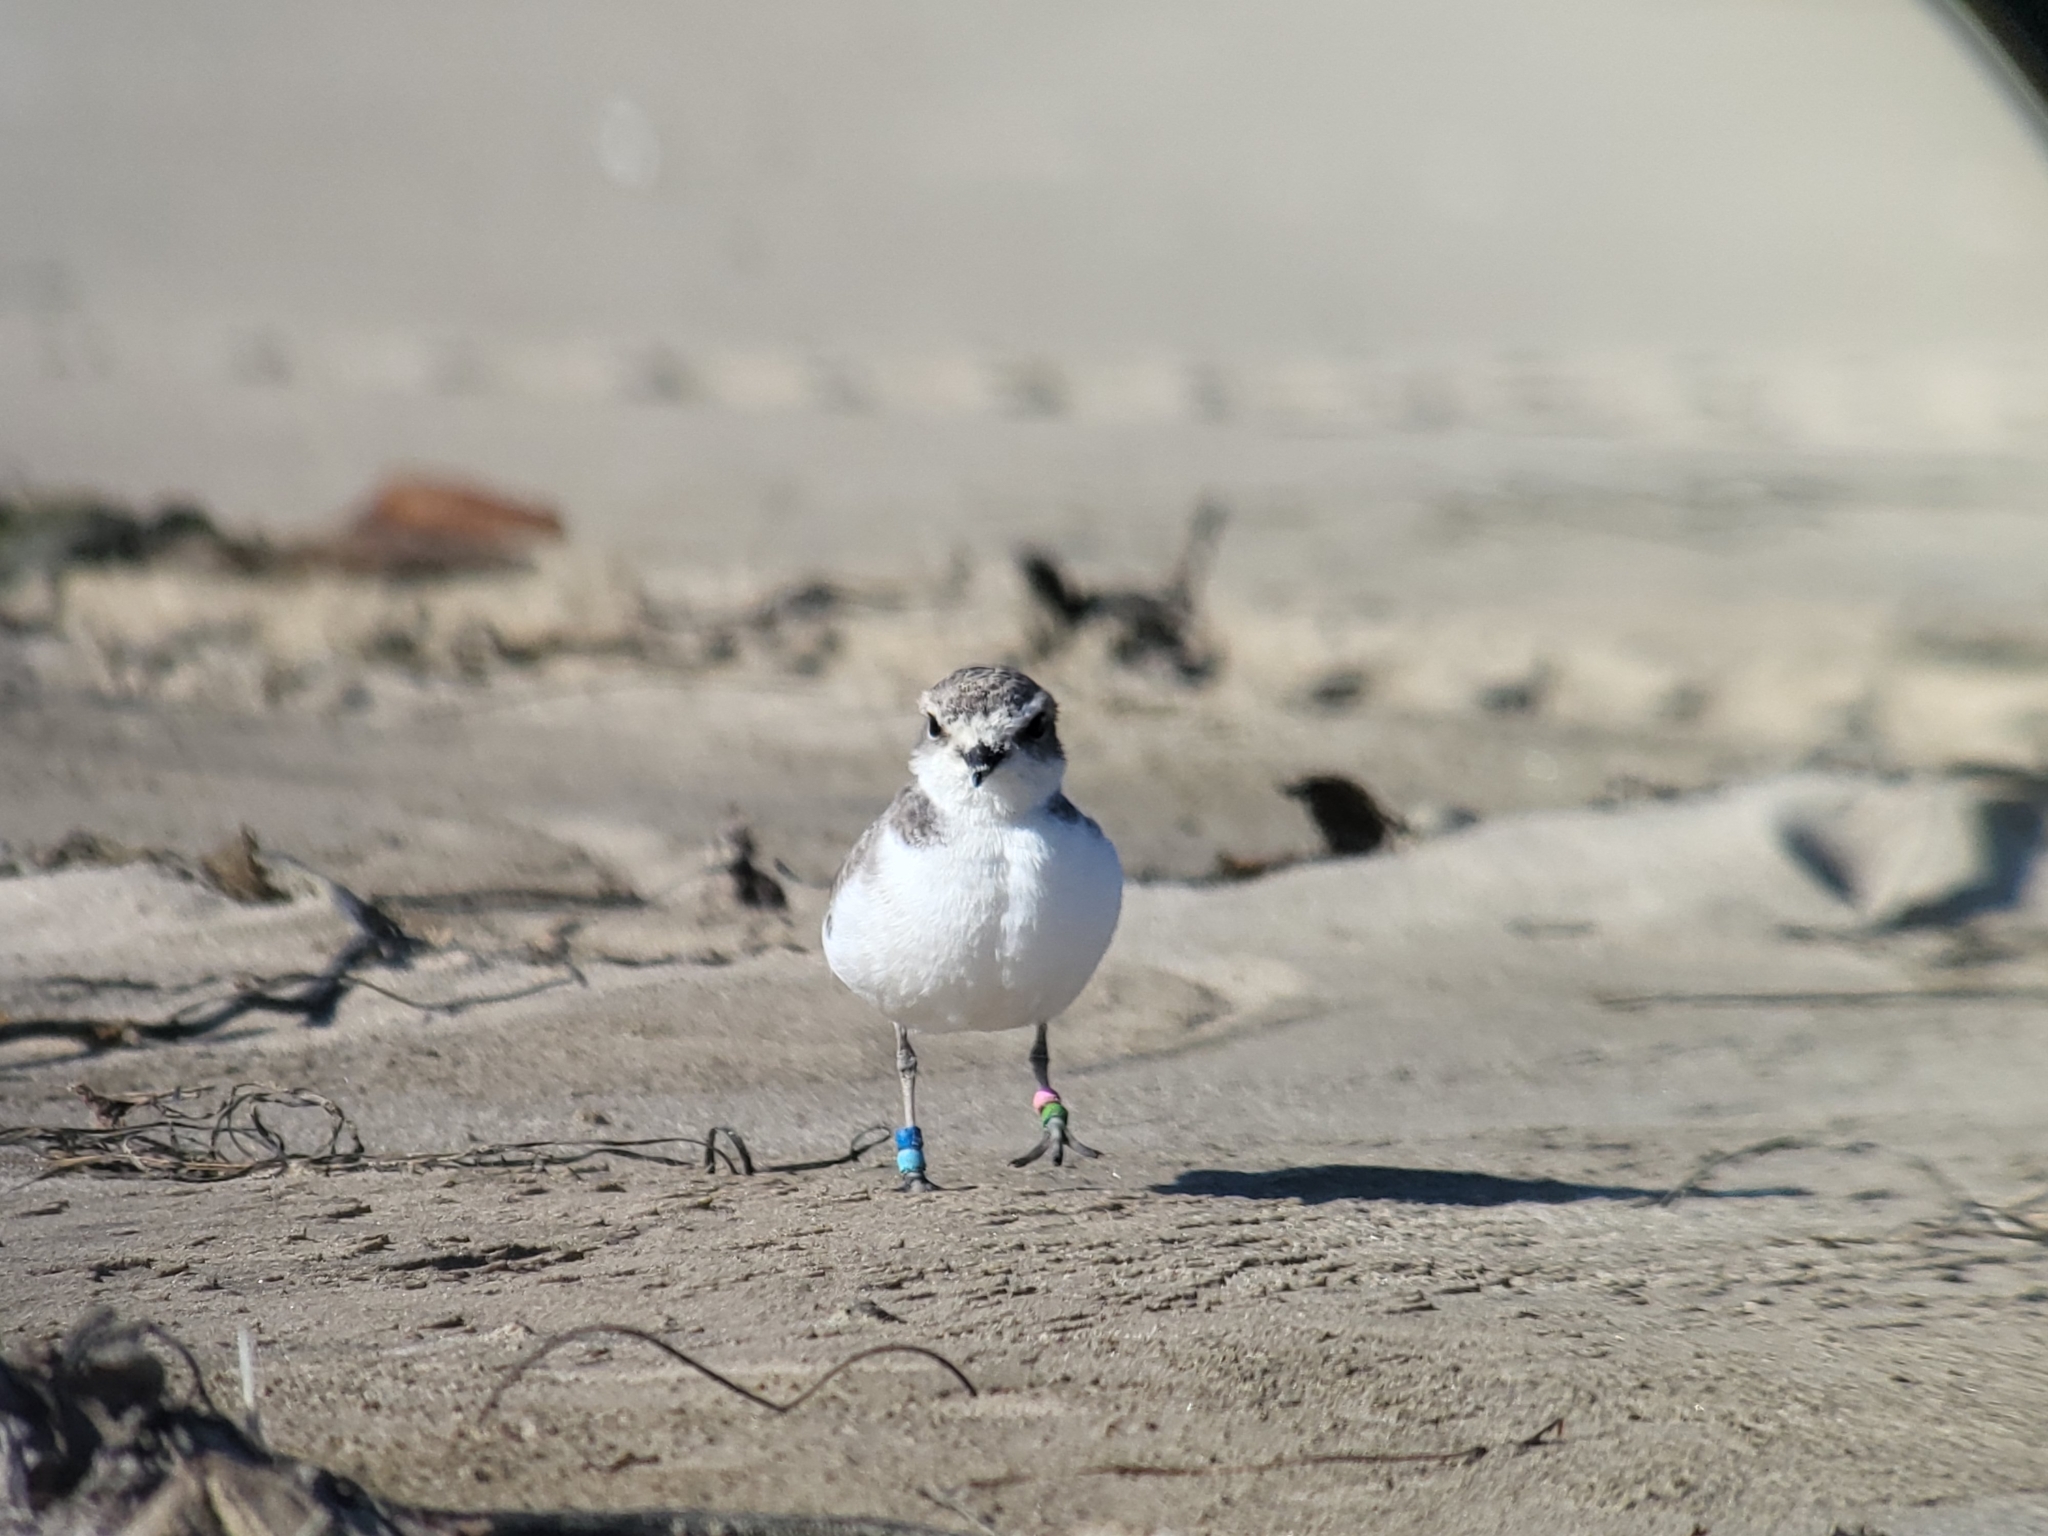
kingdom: Animalia
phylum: Chordata
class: Aves
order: Charadriiformes
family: Charadriidae
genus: Anarhynchus
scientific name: Anarhynchus
